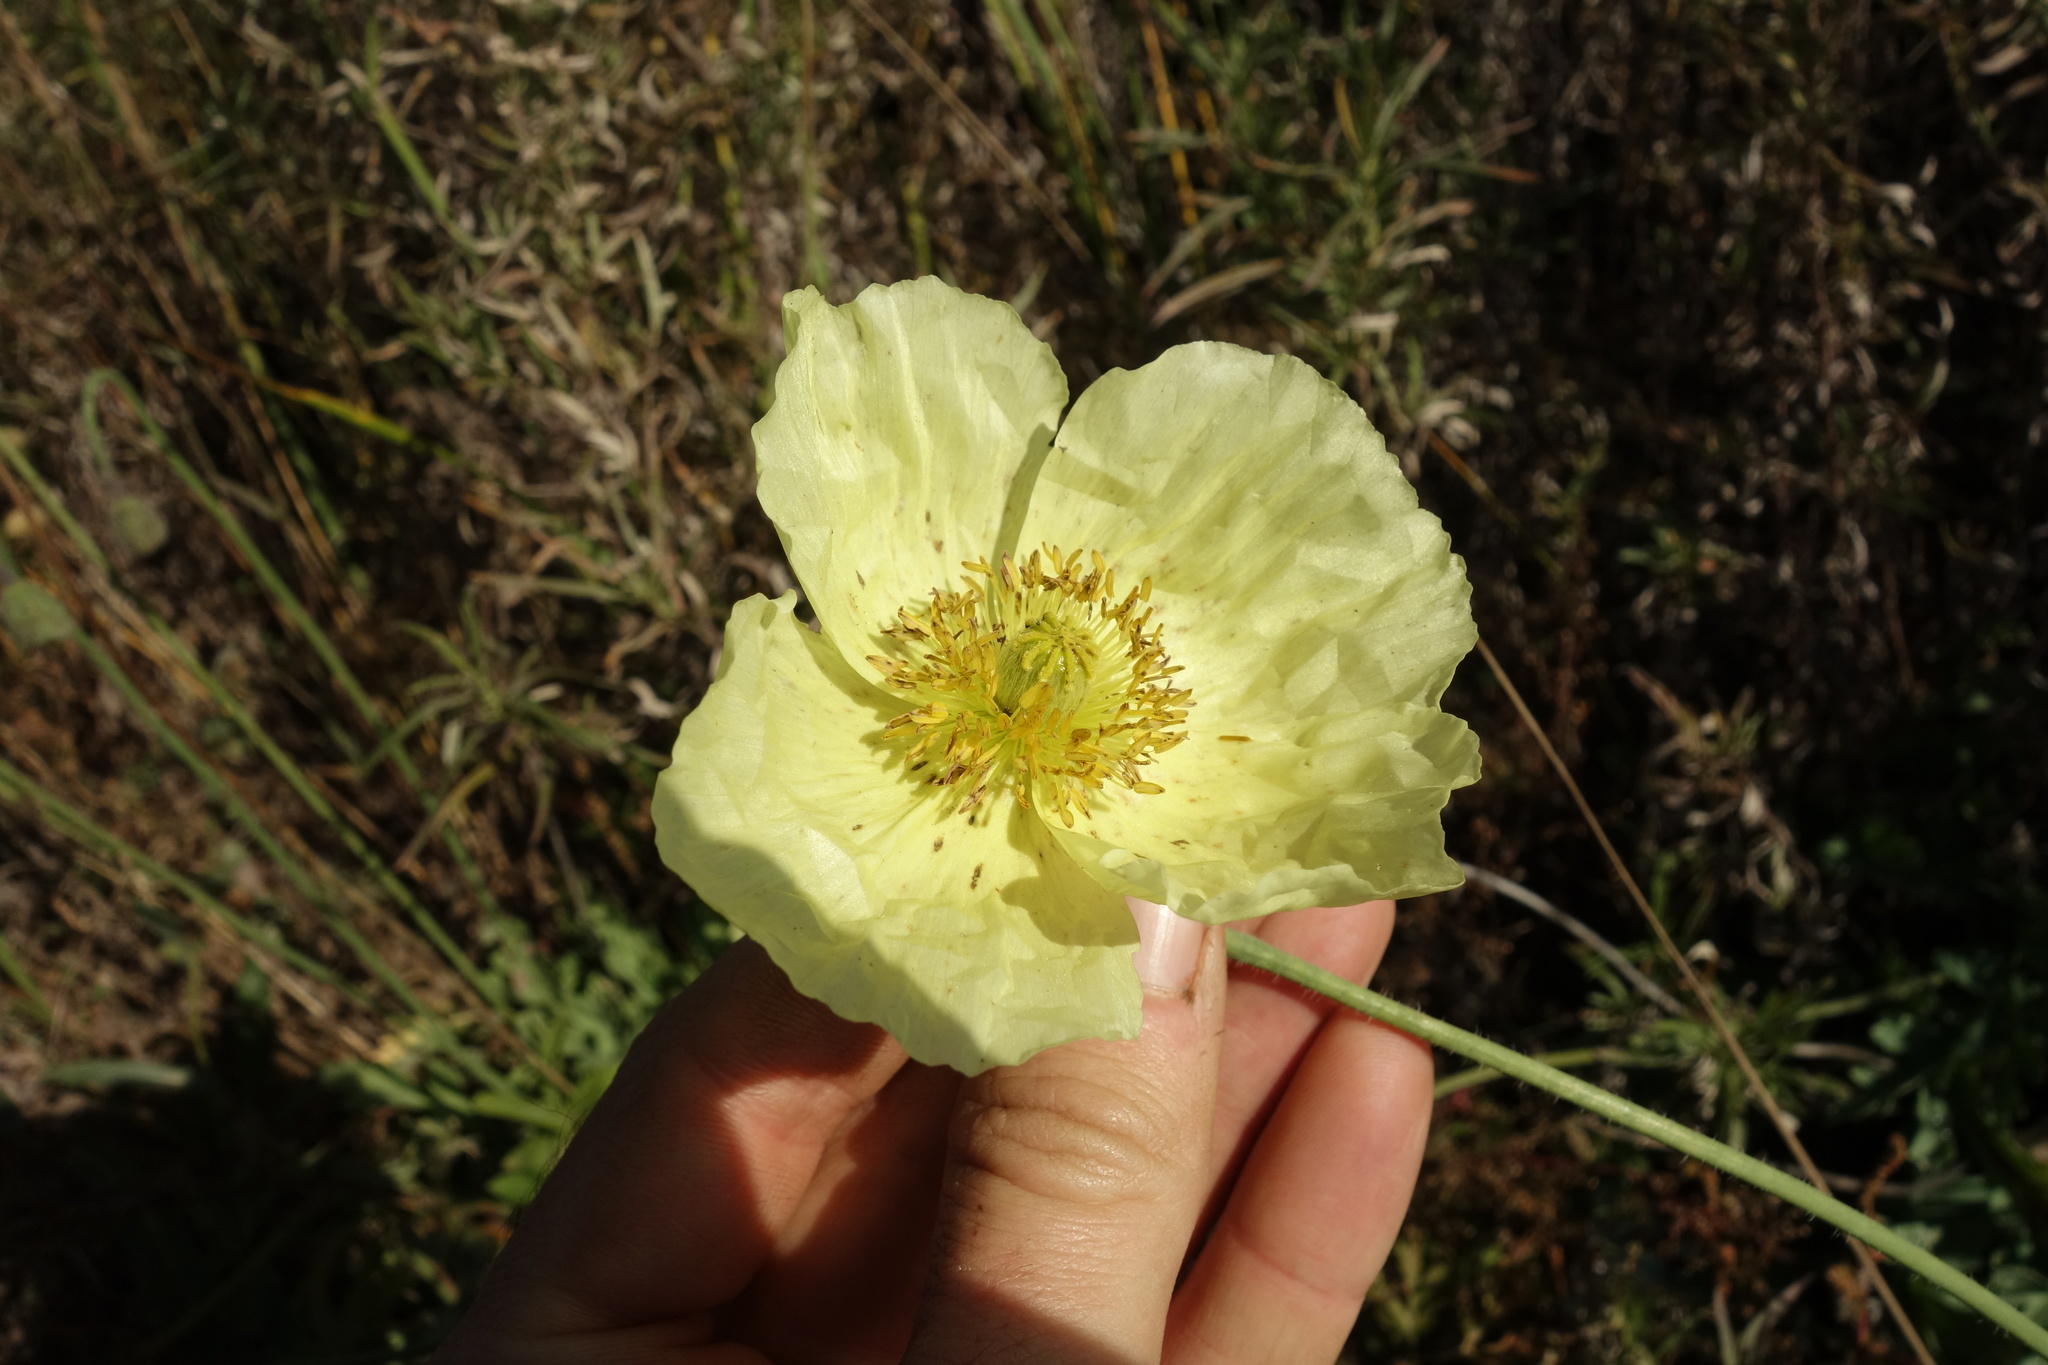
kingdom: Plantae
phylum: Tracheophyta
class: Magnoliopsida
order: Ranunculales
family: Papaveraceae
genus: Papaver
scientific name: Papaver nudicaule
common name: Arctic poppy
